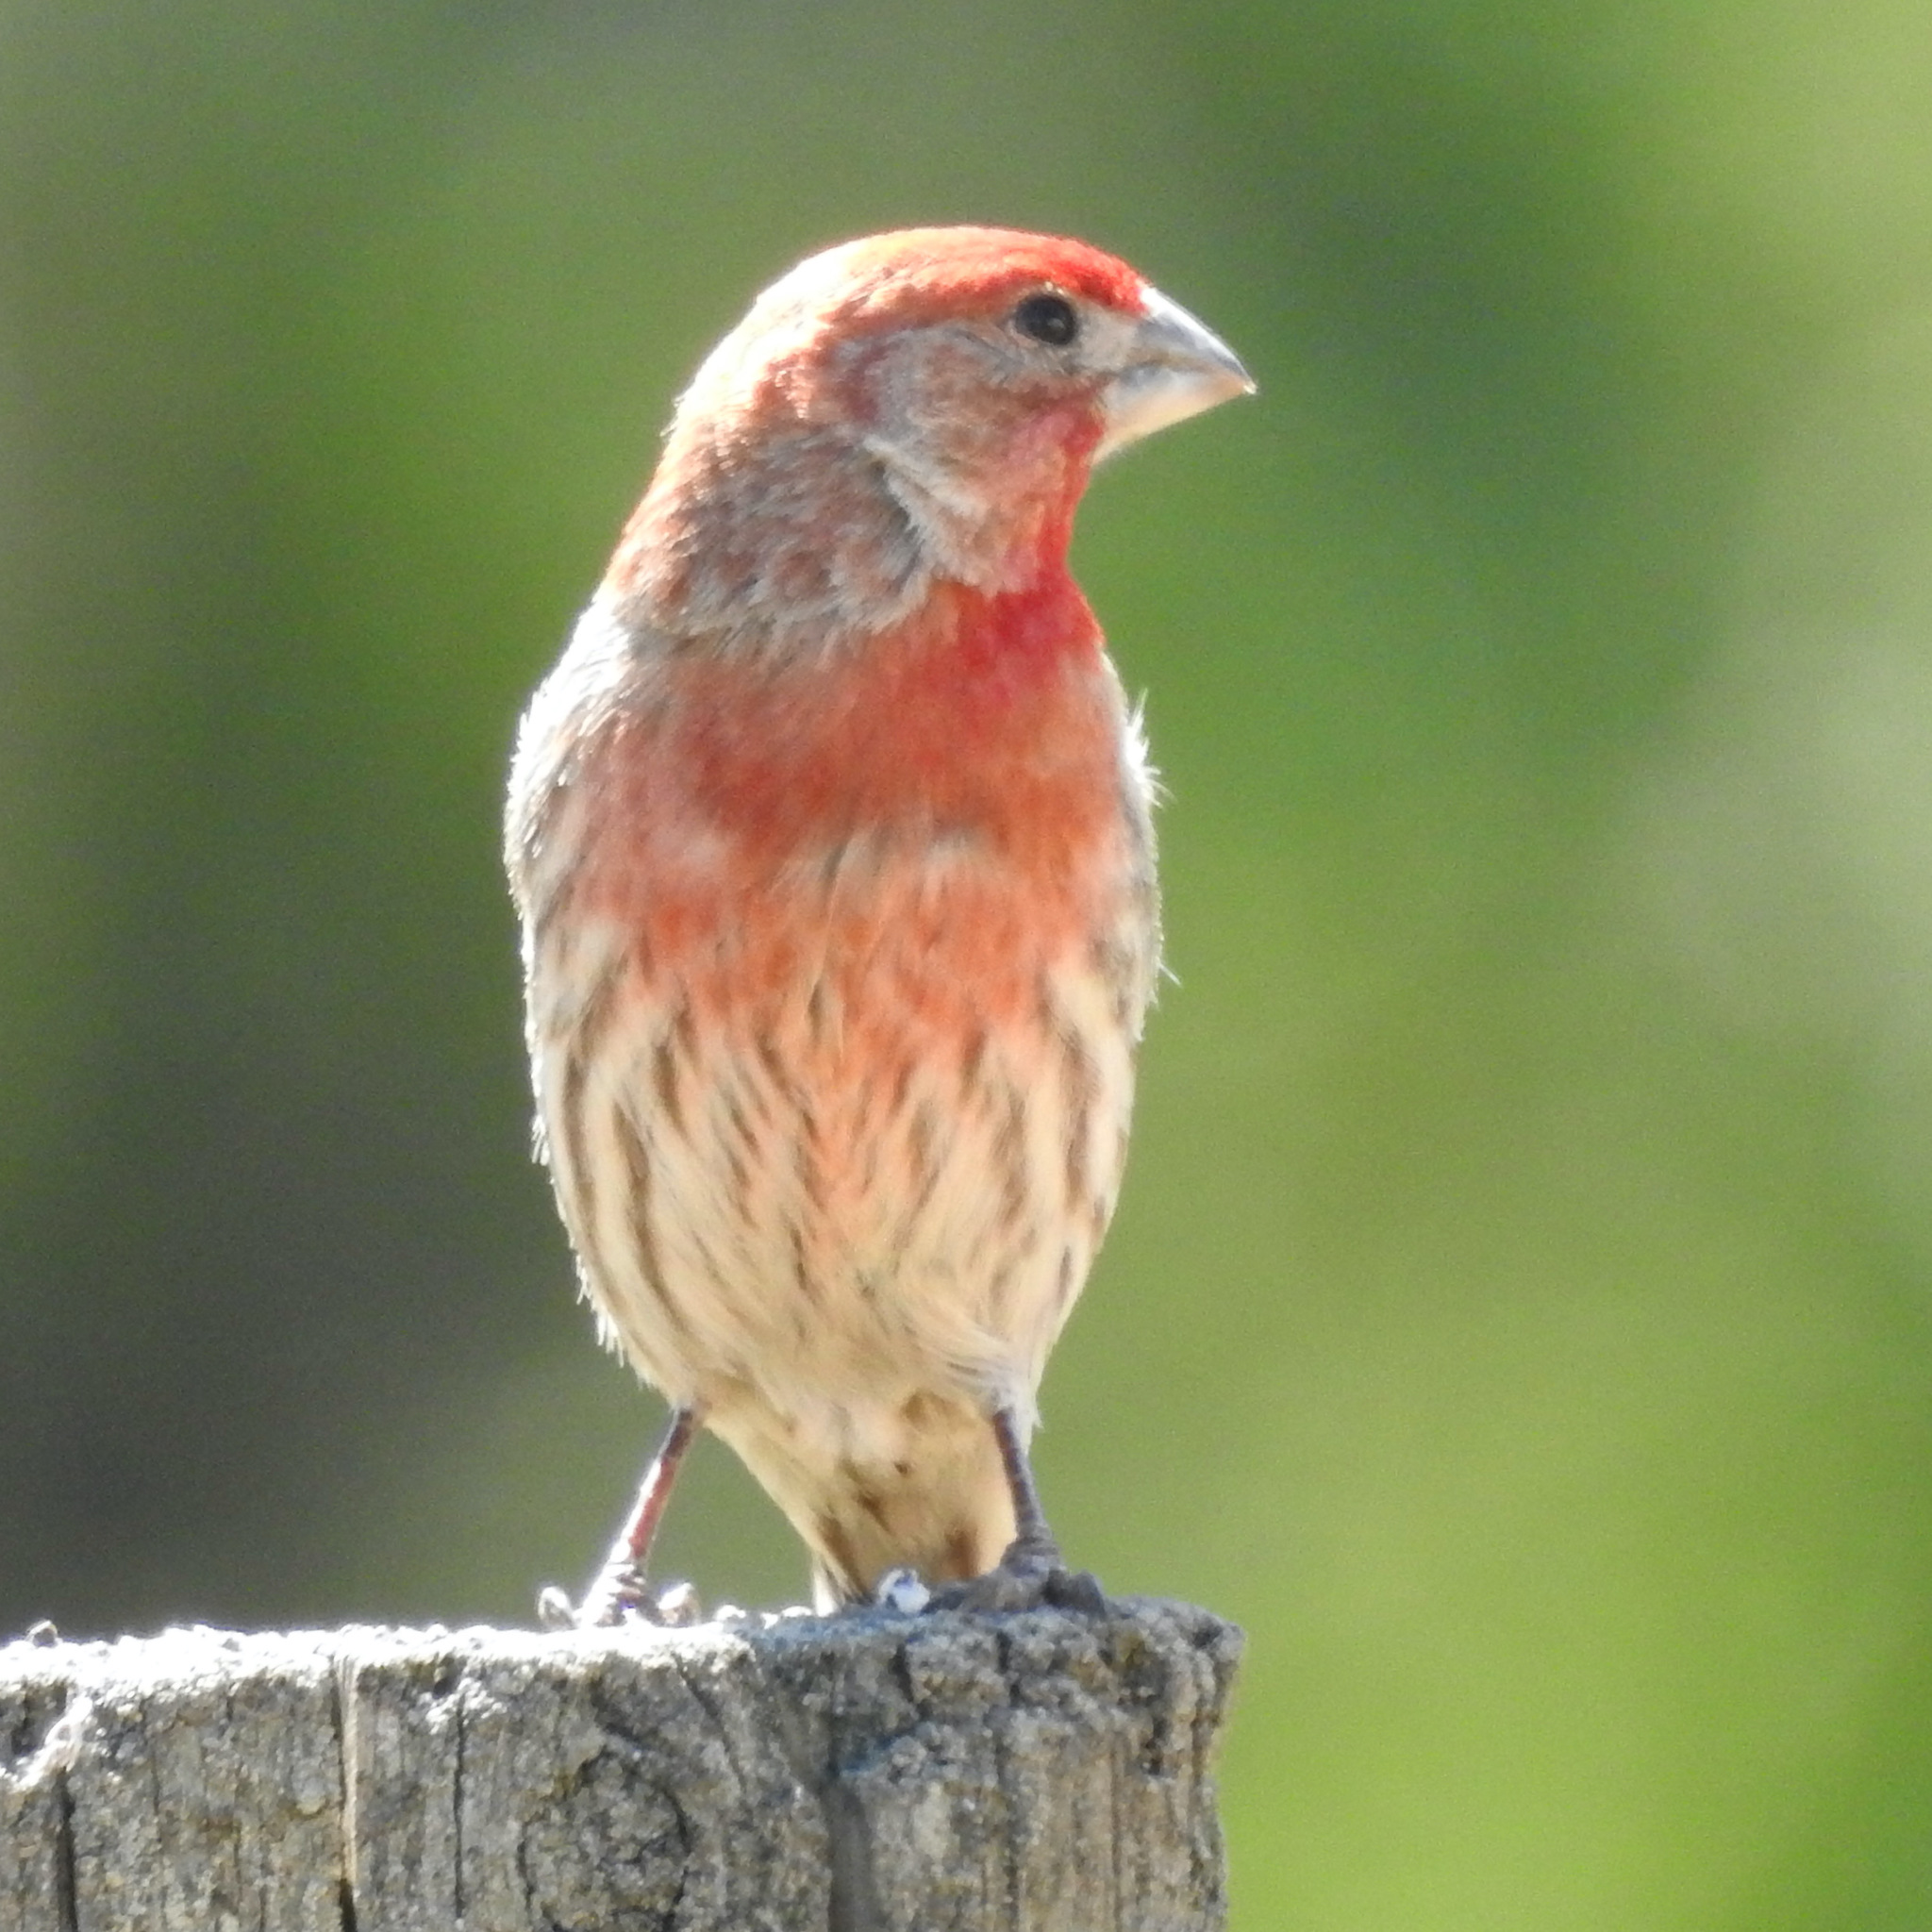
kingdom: Animalia
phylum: Chordata
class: Aves
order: Passeriformes
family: Fringillidae
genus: Haemorhous
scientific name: Haemorhous mexicanus
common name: House finch
